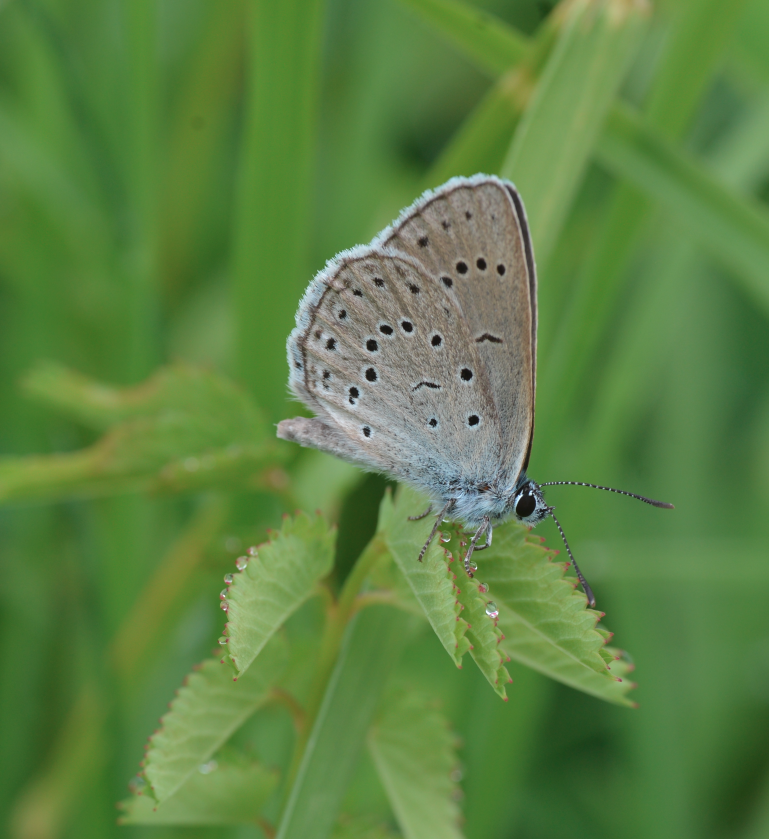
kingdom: Animalia
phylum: Arthropoda
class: Insecta
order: Lepidoptera
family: Lycaenidae
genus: Phengaris
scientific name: Phengaris teleius
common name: Scarce large blue
